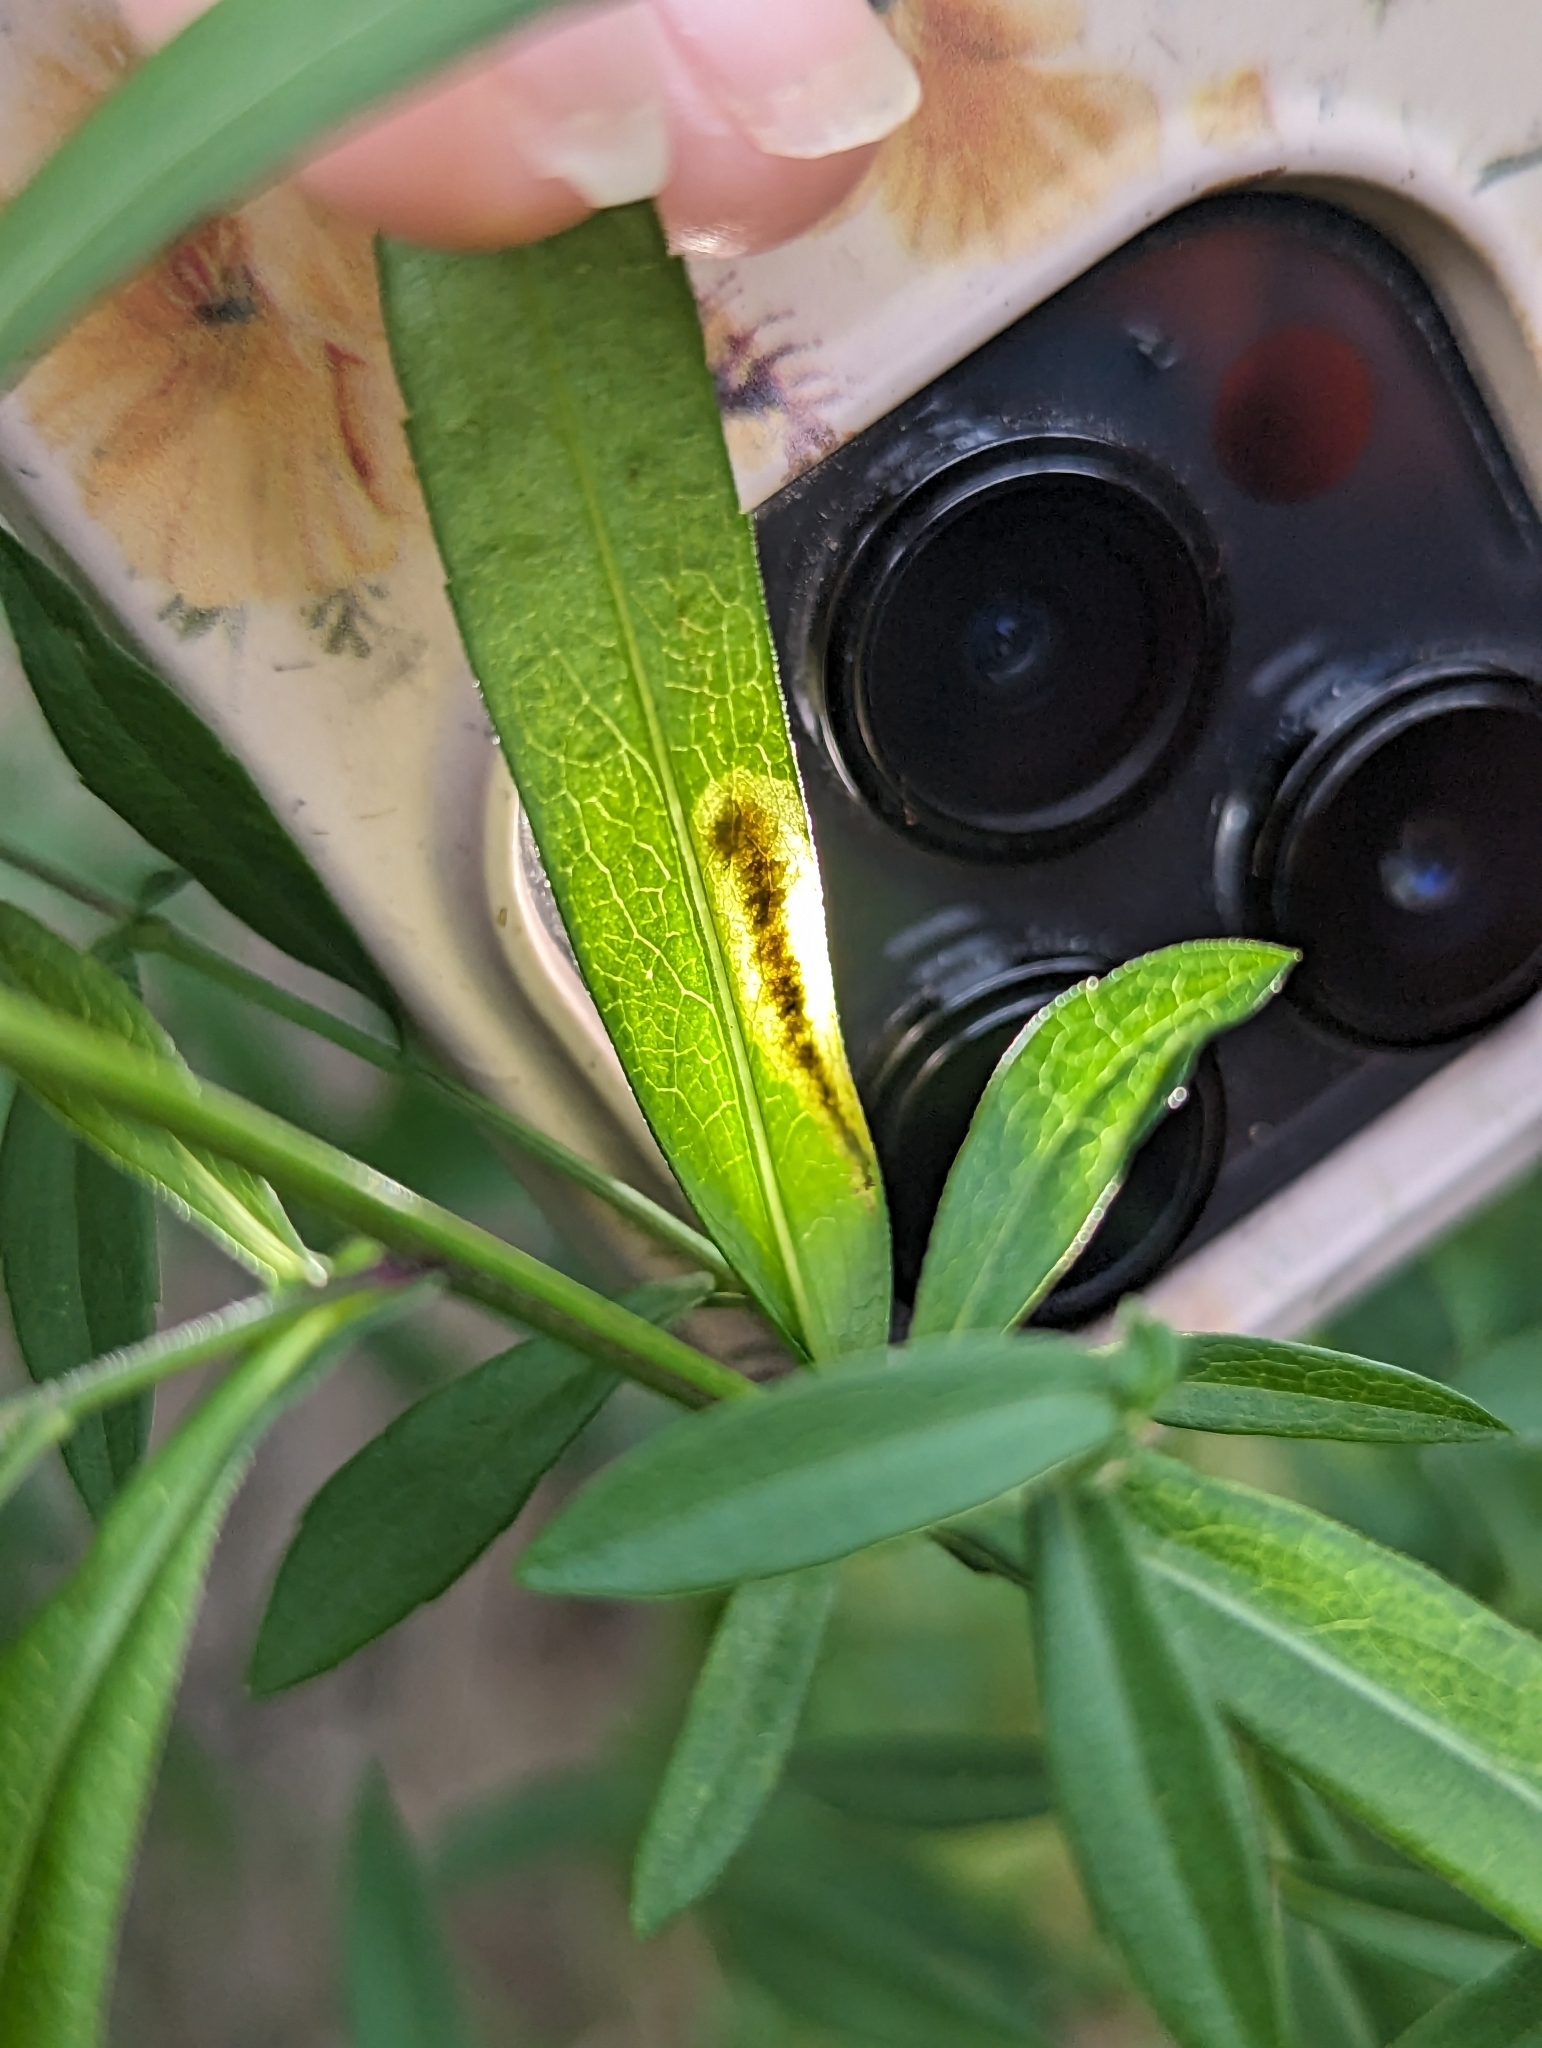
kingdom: Animalia
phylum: Arthropoda
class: Insecta
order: Diptera
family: Agromyzidae
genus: Nemorimyza
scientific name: Nemorimyza posticata
